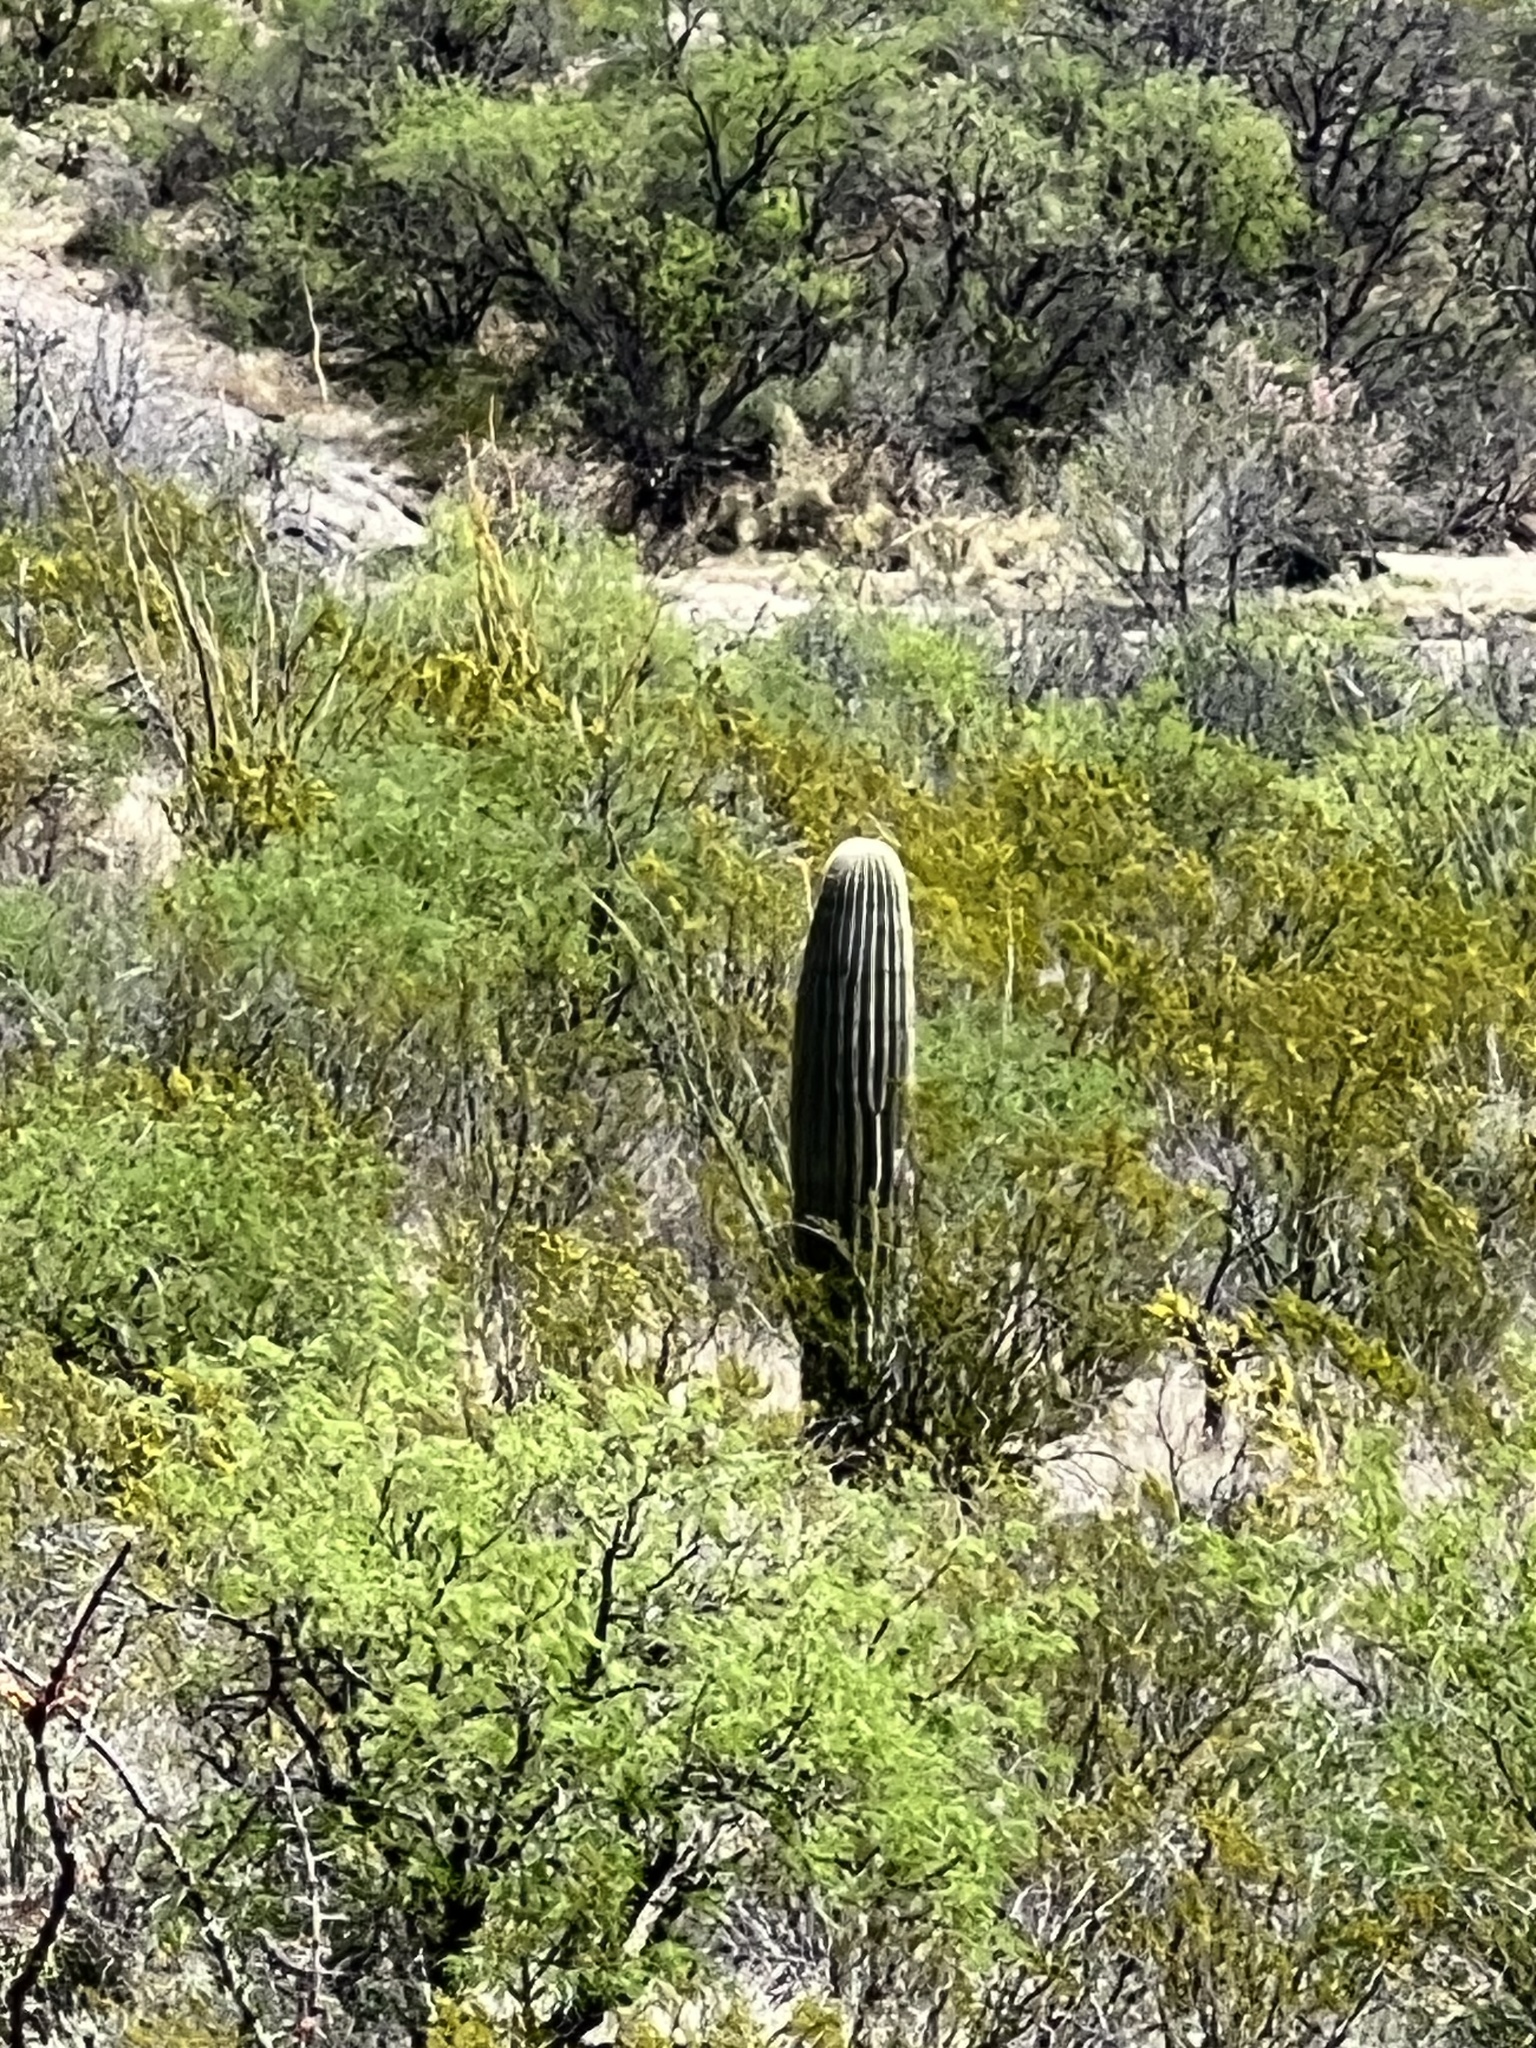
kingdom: Plantae
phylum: Tracheophyta
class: Magnoliopsida
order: Caryophyllales
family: Cactaceae
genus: Carnegiea
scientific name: Carnegiea gigantea
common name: Saguaro
